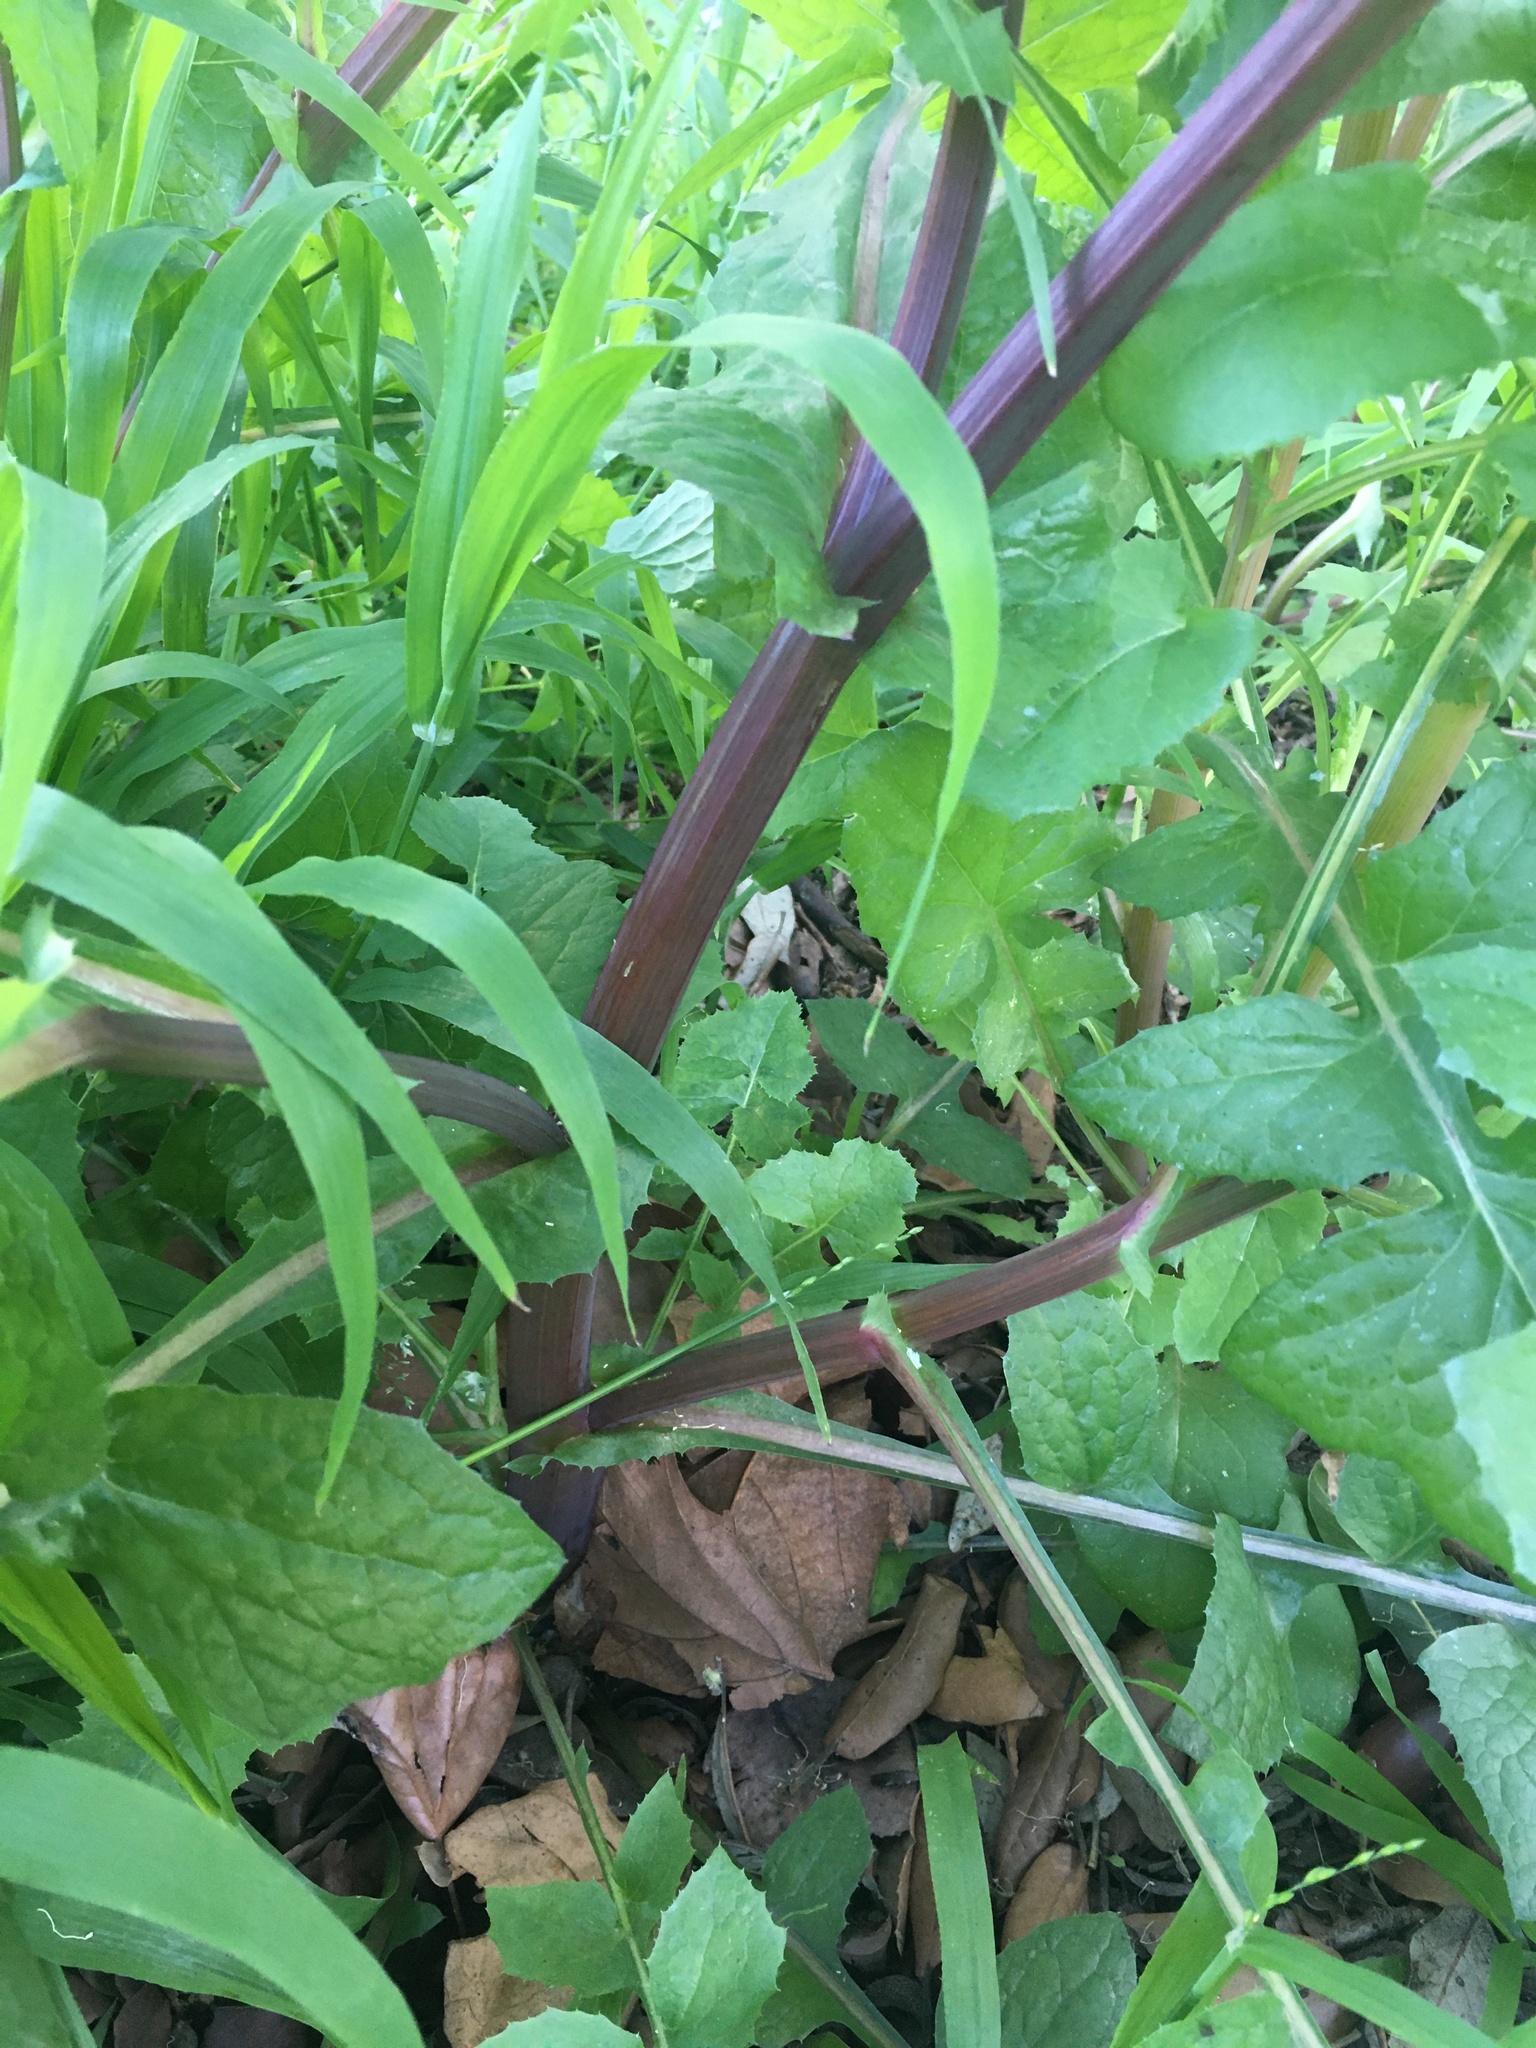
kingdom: Plantae
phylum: Tracheophyta
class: Magnoliopsida
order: Asterales
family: Asteraceae
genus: Sonchus
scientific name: Sonchus oleraceus
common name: Common sowthistle
